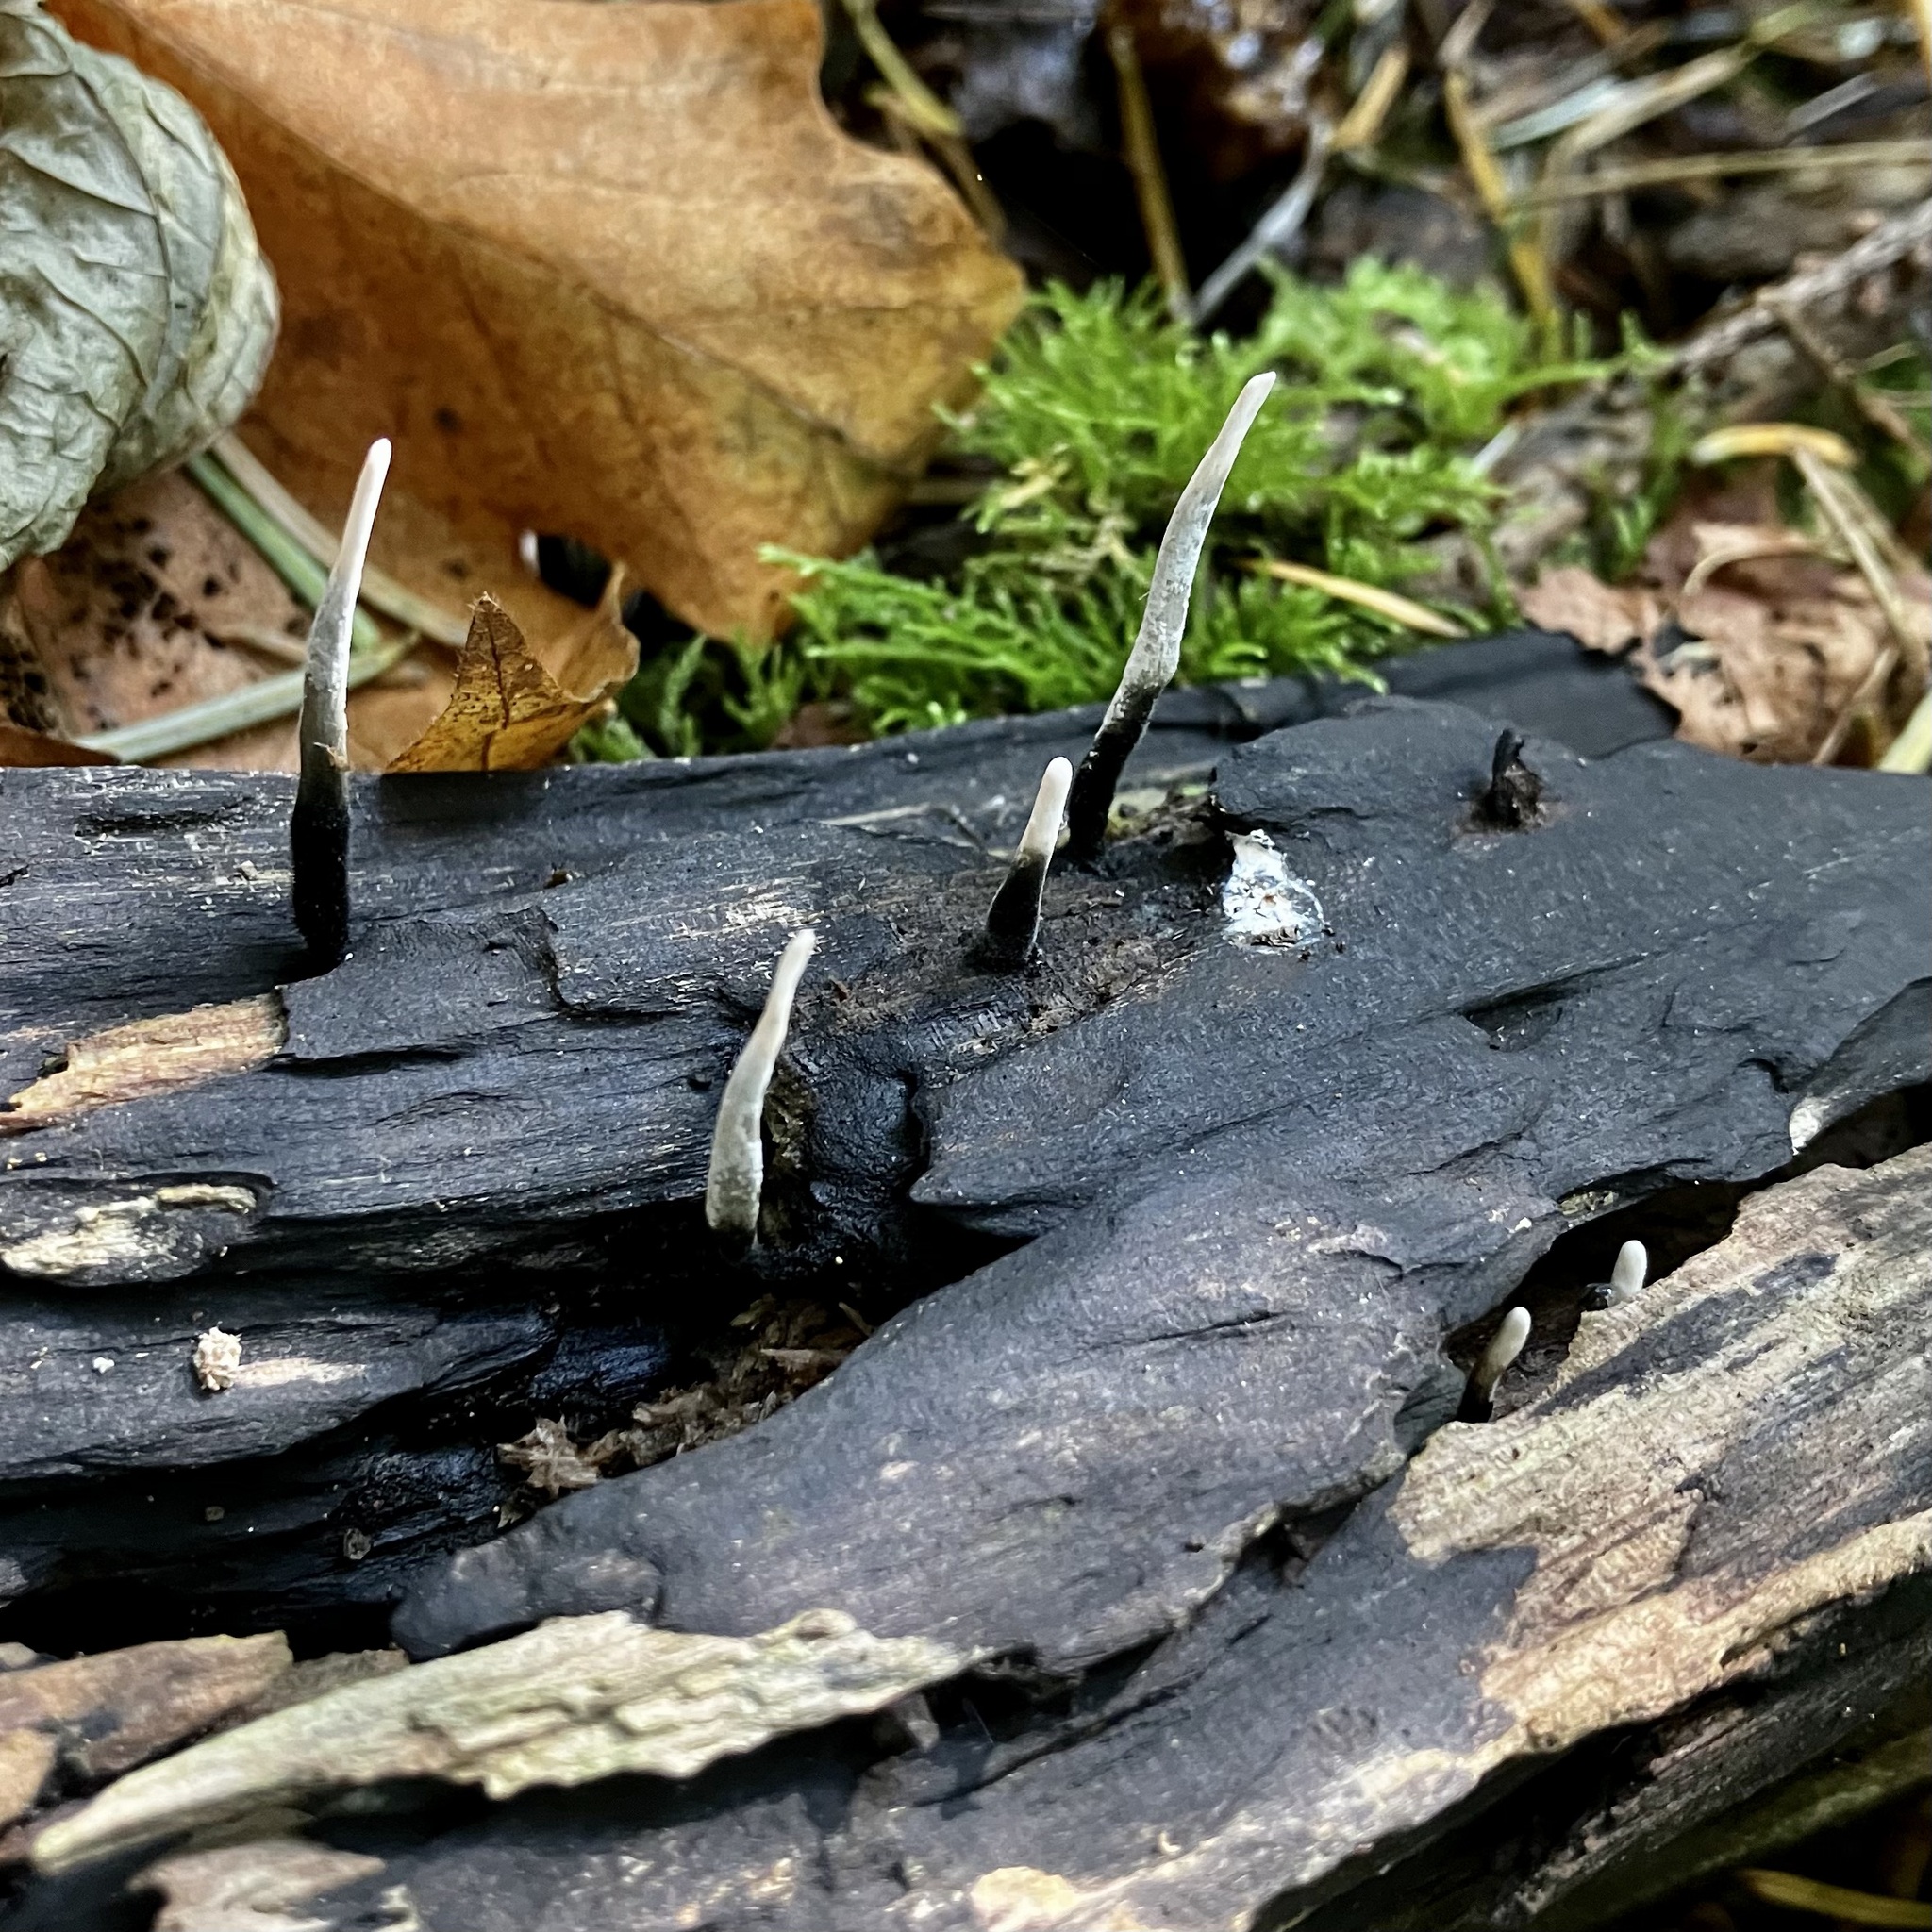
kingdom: Fungi
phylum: Ascomycota
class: Sordariomycetes
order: Xylariales
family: Xylariaceae
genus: Xylaria
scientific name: Xylaria hypoxylon
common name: Candle-snuff fungus
